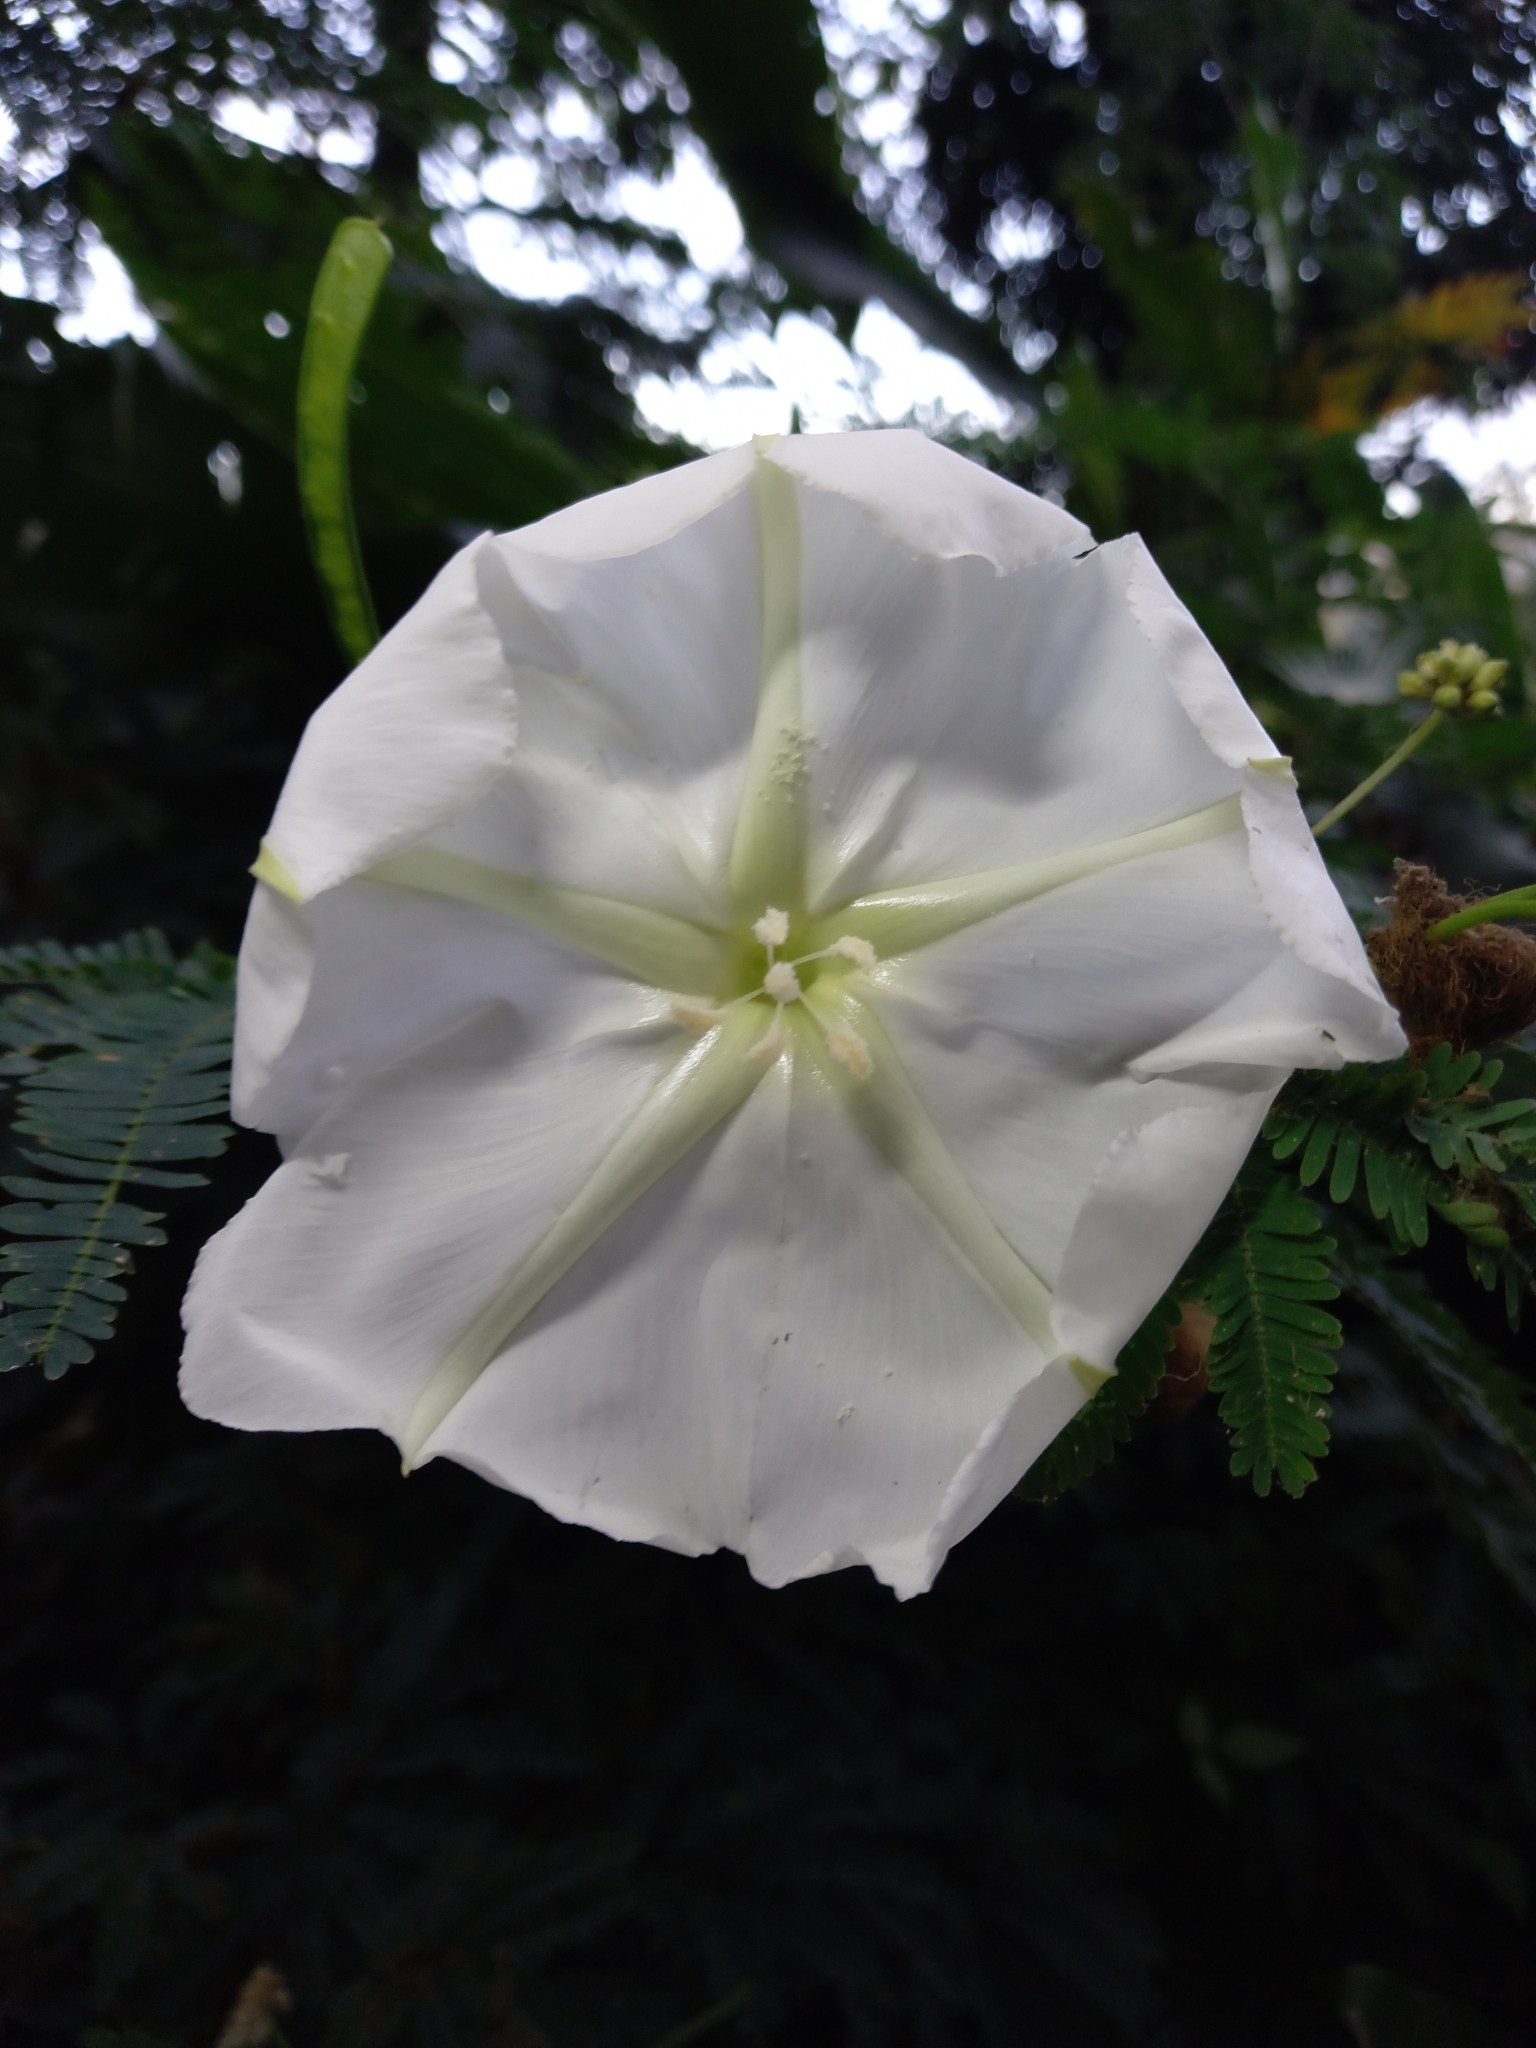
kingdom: Plantae
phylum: Tracheophyta
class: Magnoliopsida
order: Solanales
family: Convolvulaceae
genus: Ipomoea
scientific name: Ipomoea alba
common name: Moonflower
